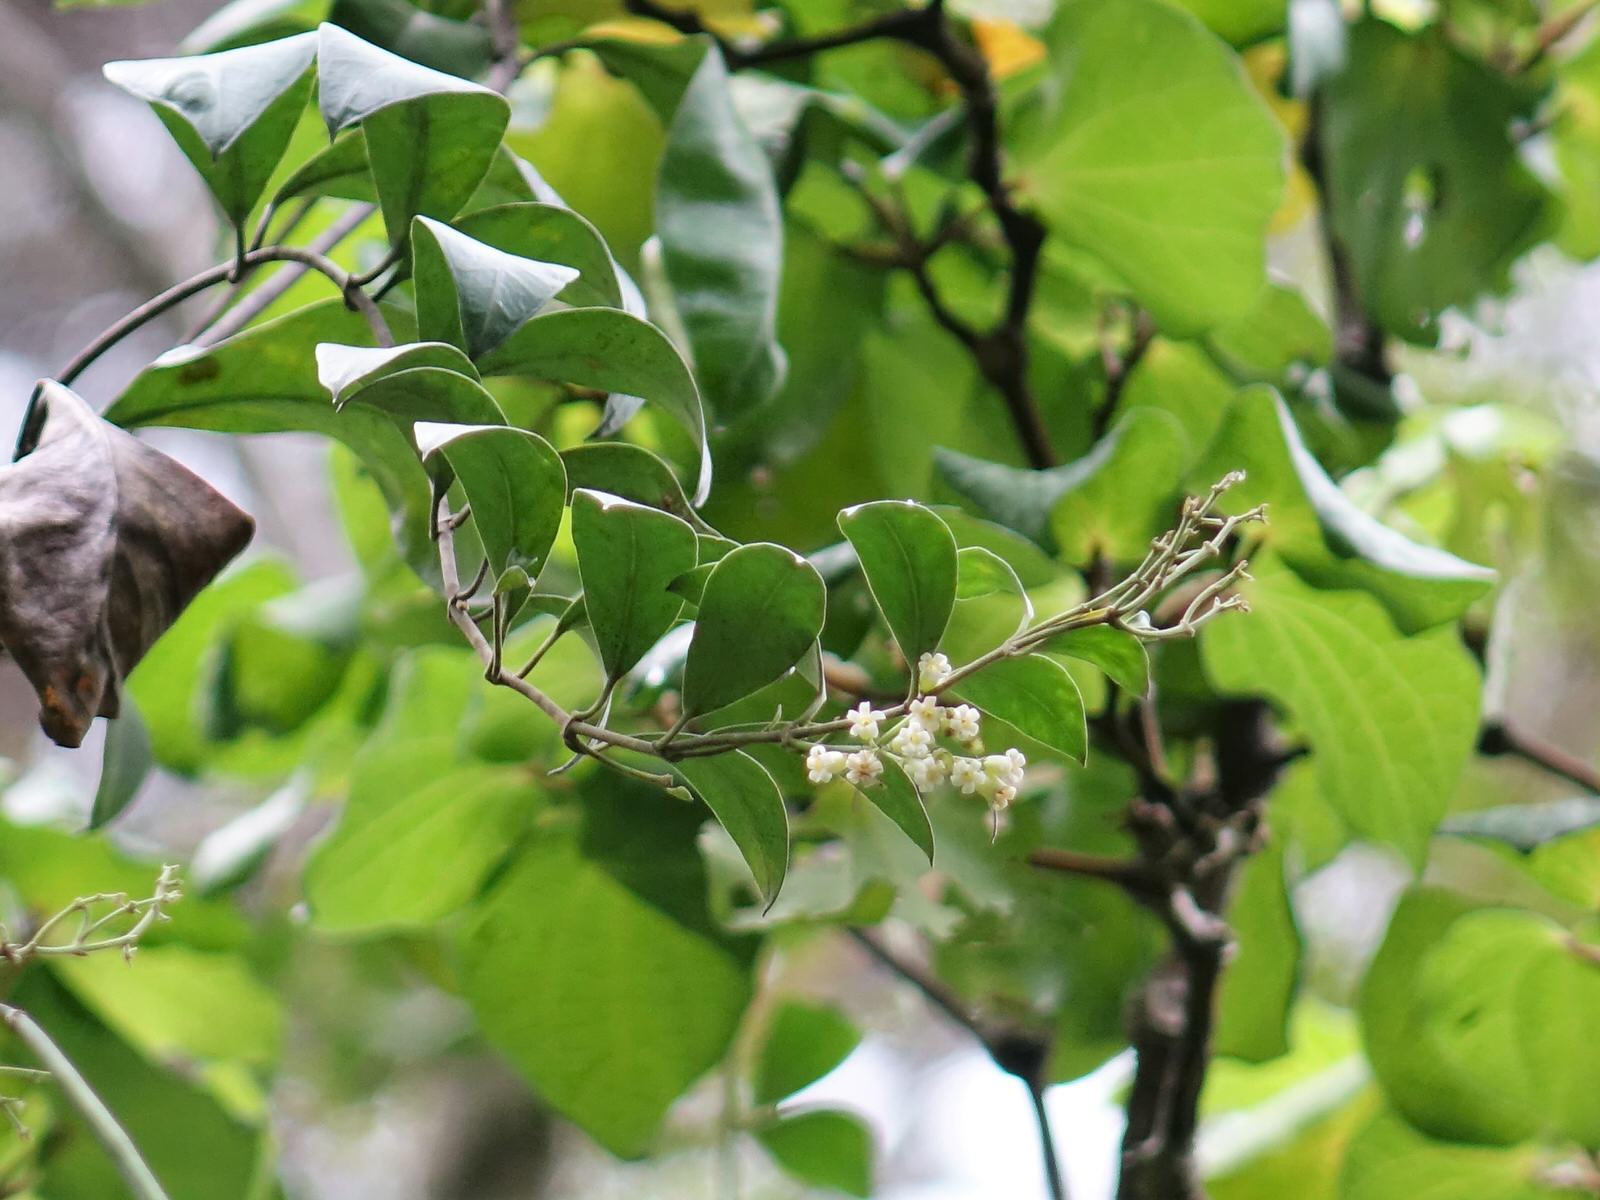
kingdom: Plantae
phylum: Tracheophyta
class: Magnoliopsida
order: Gentianales
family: Apocynaceae
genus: Parsonsia
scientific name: Parsonsia heterophylla
